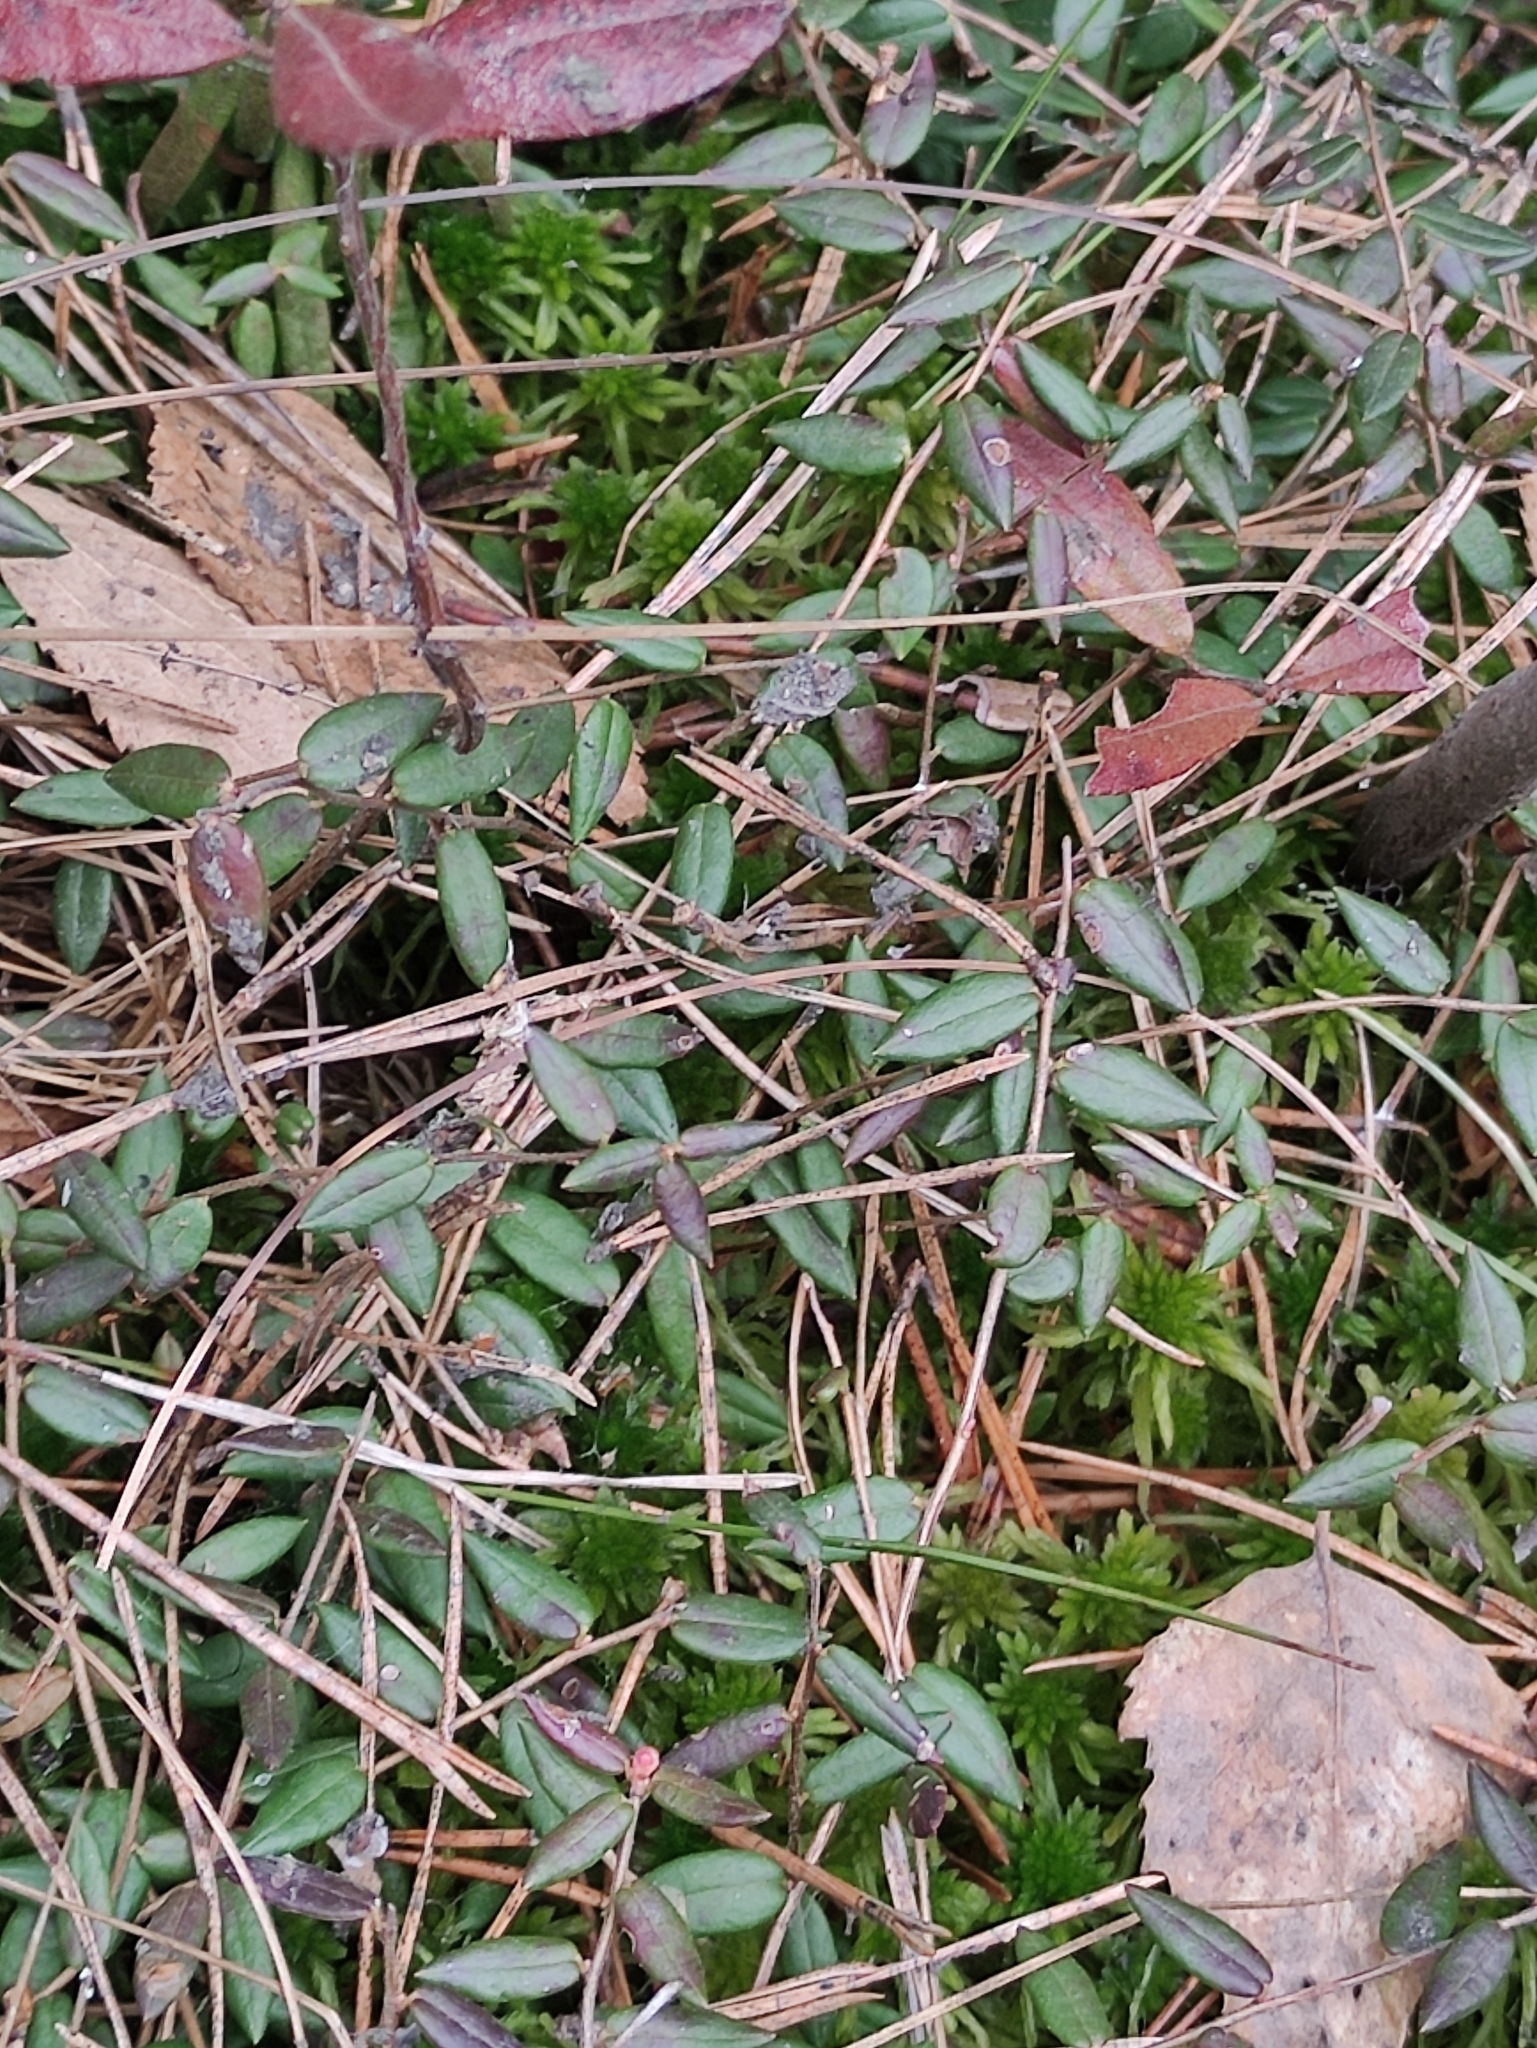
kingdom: Plantae
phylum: Tracheophyta
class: Magnoliopsida
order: Ericales
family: Ericaceae
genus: Vaccinium
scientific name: Vaccinium oxycoccos
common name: Cranberry
